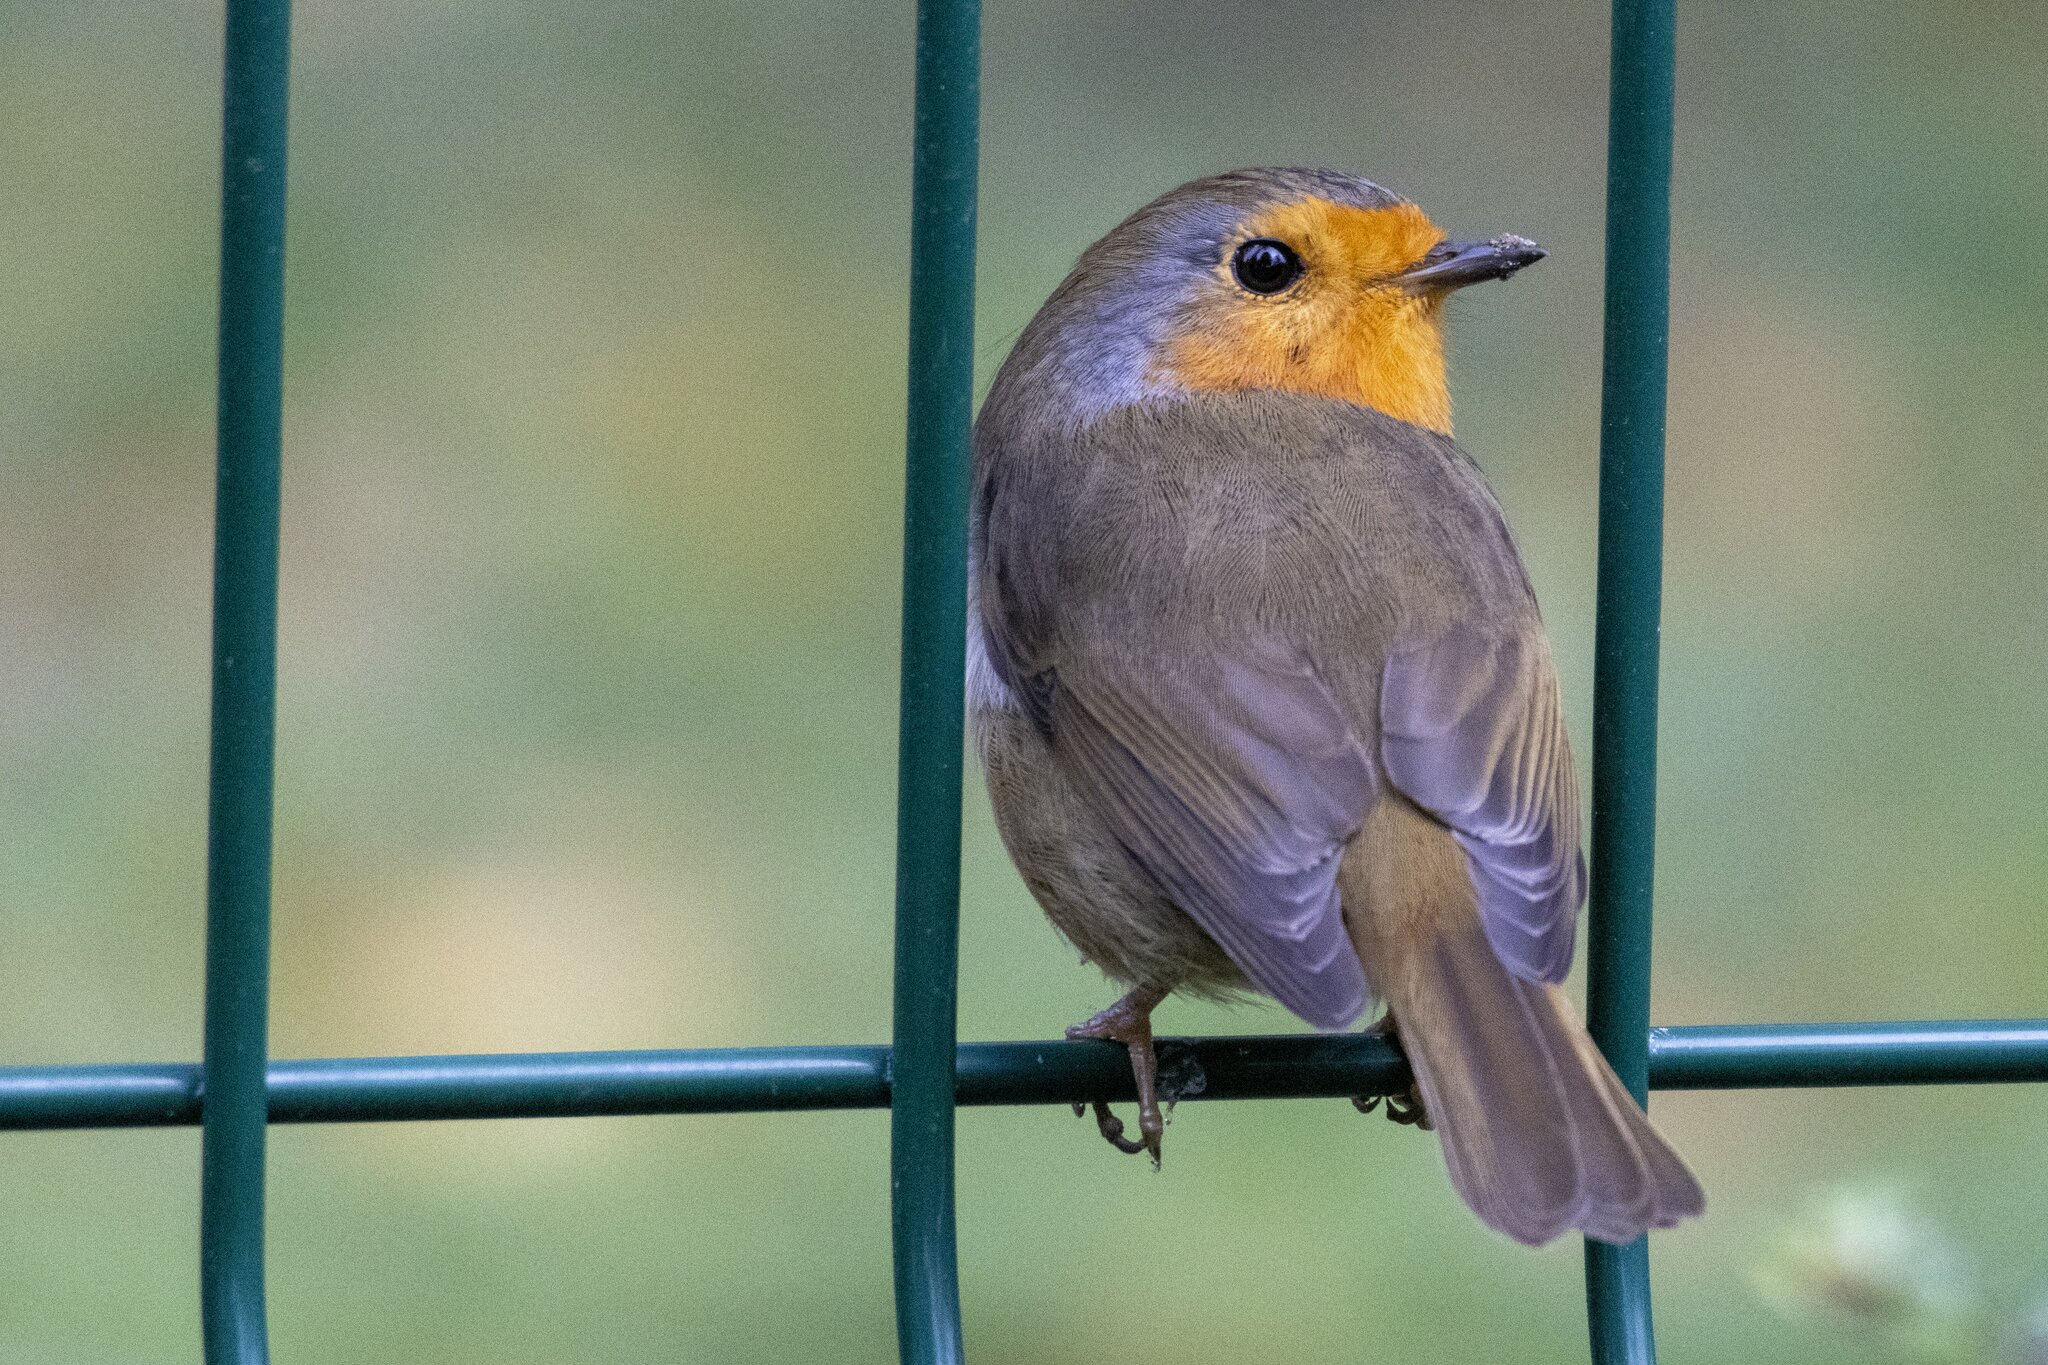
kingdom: Animalia
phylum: Chordata
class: Aves
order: Passeriformes
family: Muscicapidae
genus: Erithacus
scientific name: Erithacus rubecula
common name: European robin
